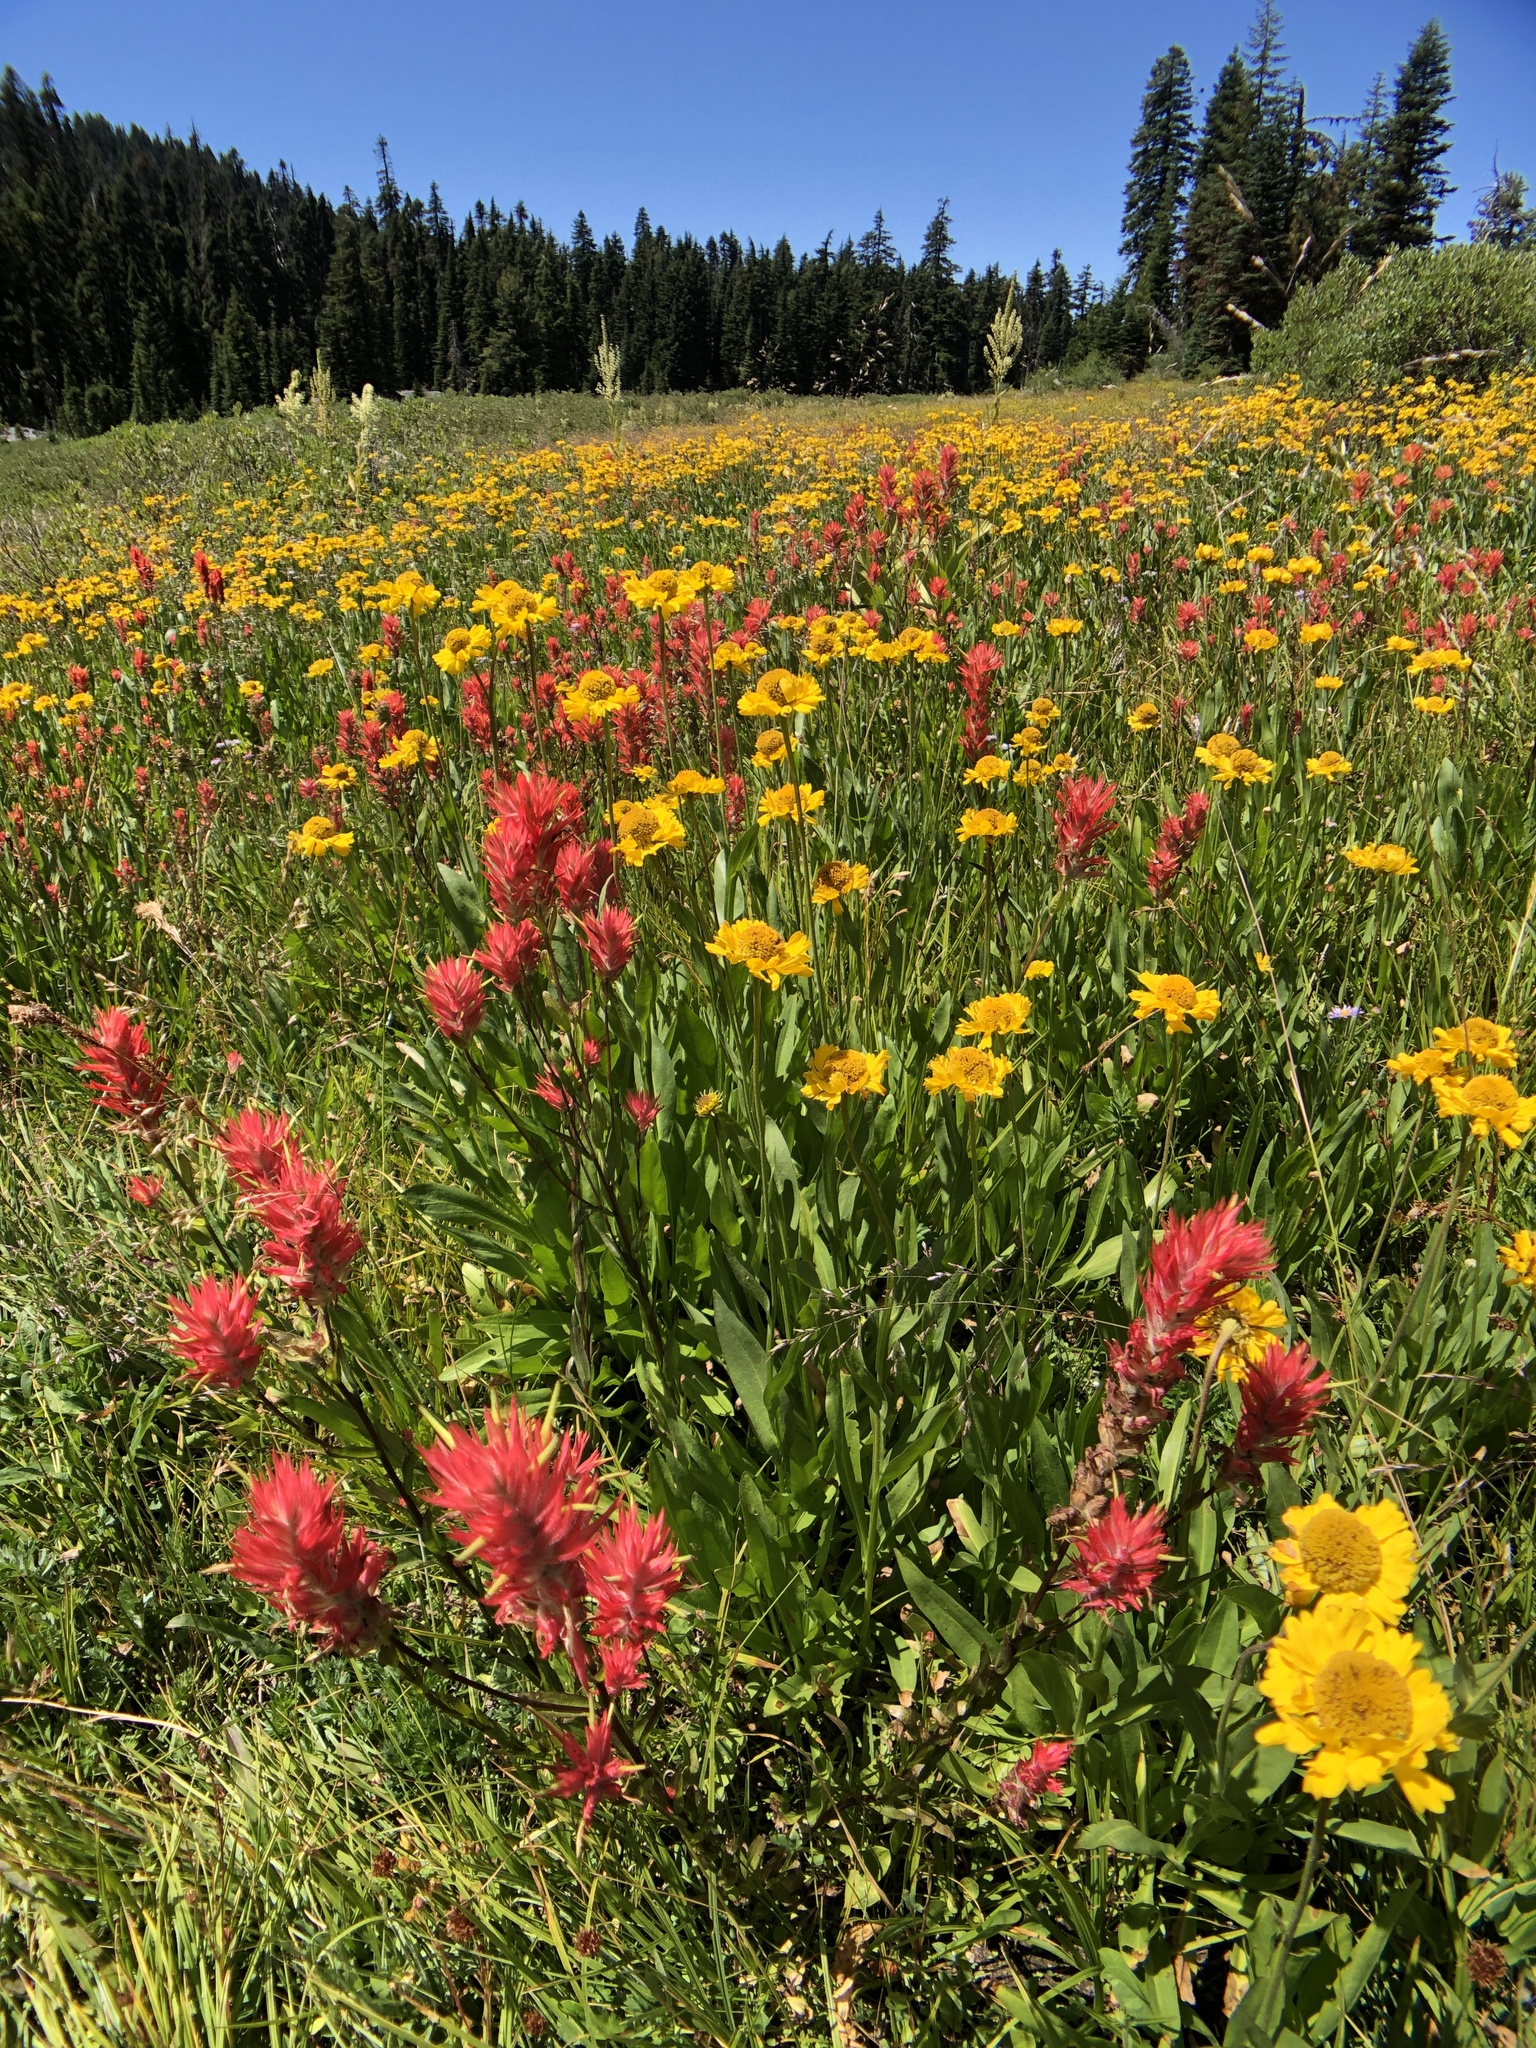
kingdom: Plantae
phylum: Tracheophyta
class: Magnoliopsida
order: Lamiales
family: Orobanchaceae
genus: Castilleja
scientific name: Castilleja miniata
